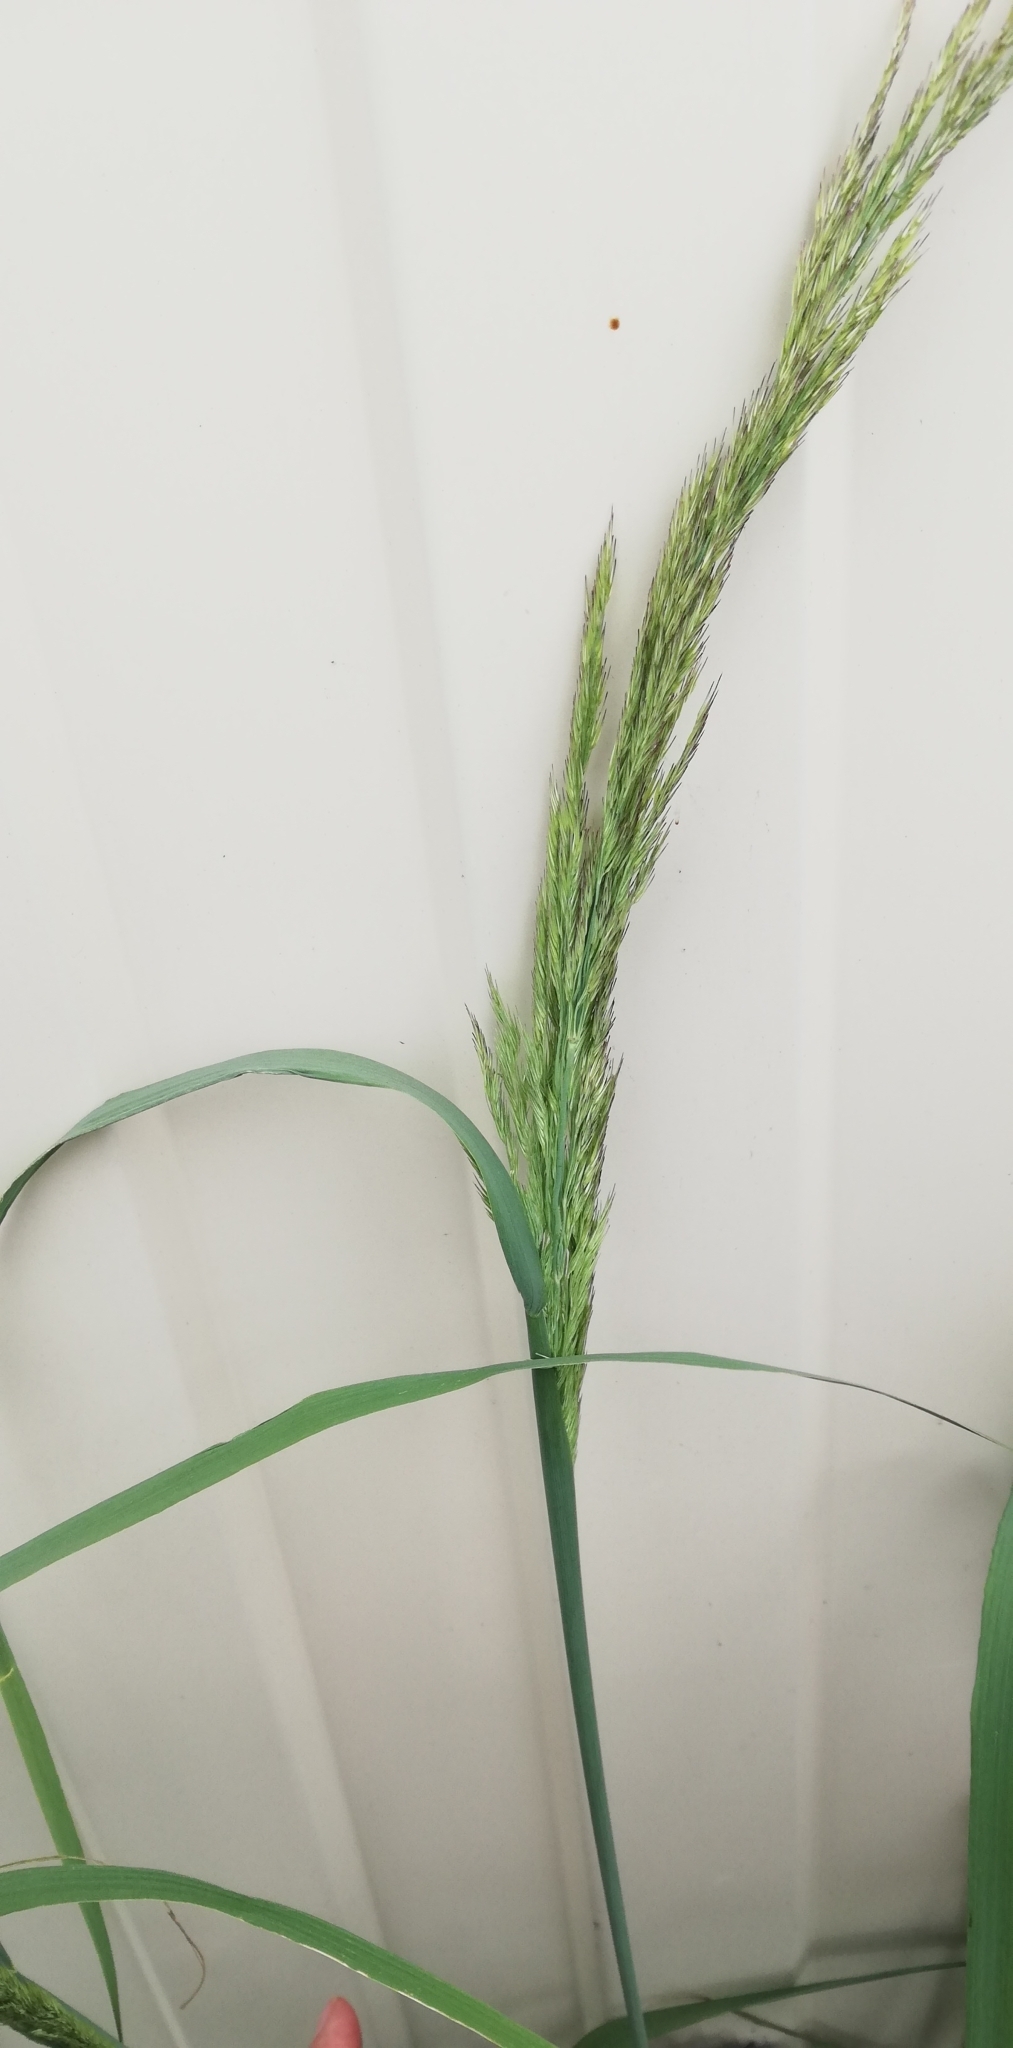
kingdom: Plantae
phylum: Tracheophyta
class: Liliopsida
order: Poales
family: Poaceae
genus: Calamagrostis
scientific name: Calamagrostis epigejos
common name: Wood small-reed
